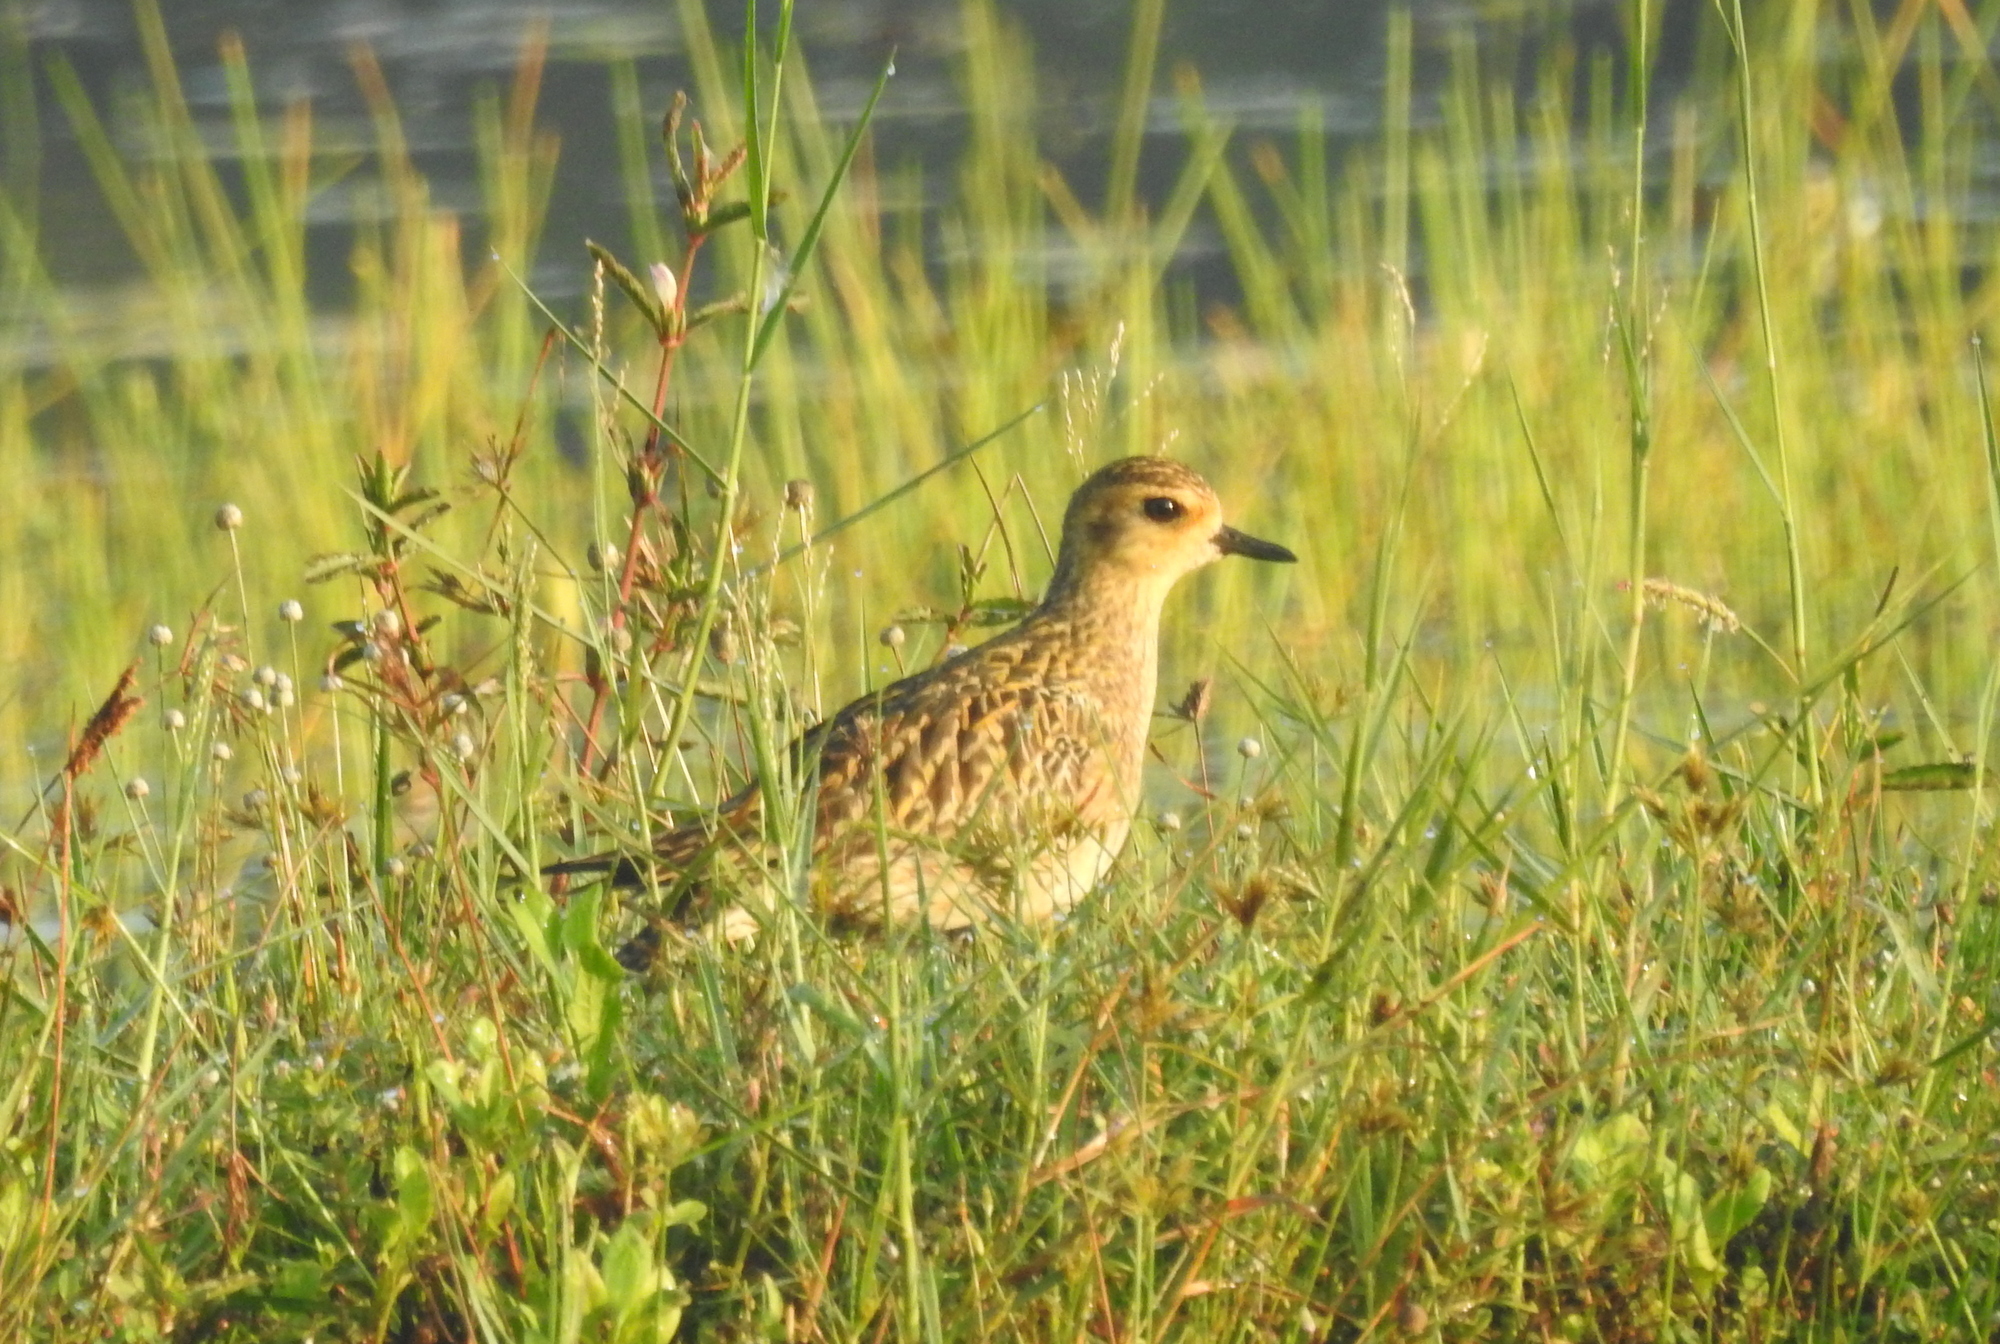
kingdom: Animalia
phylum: Chordata
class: Aves
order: Charadriiformes
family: Charadriidae
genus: Pluvialis
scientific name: Pluvialis fulva
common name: Pacific golden plover
